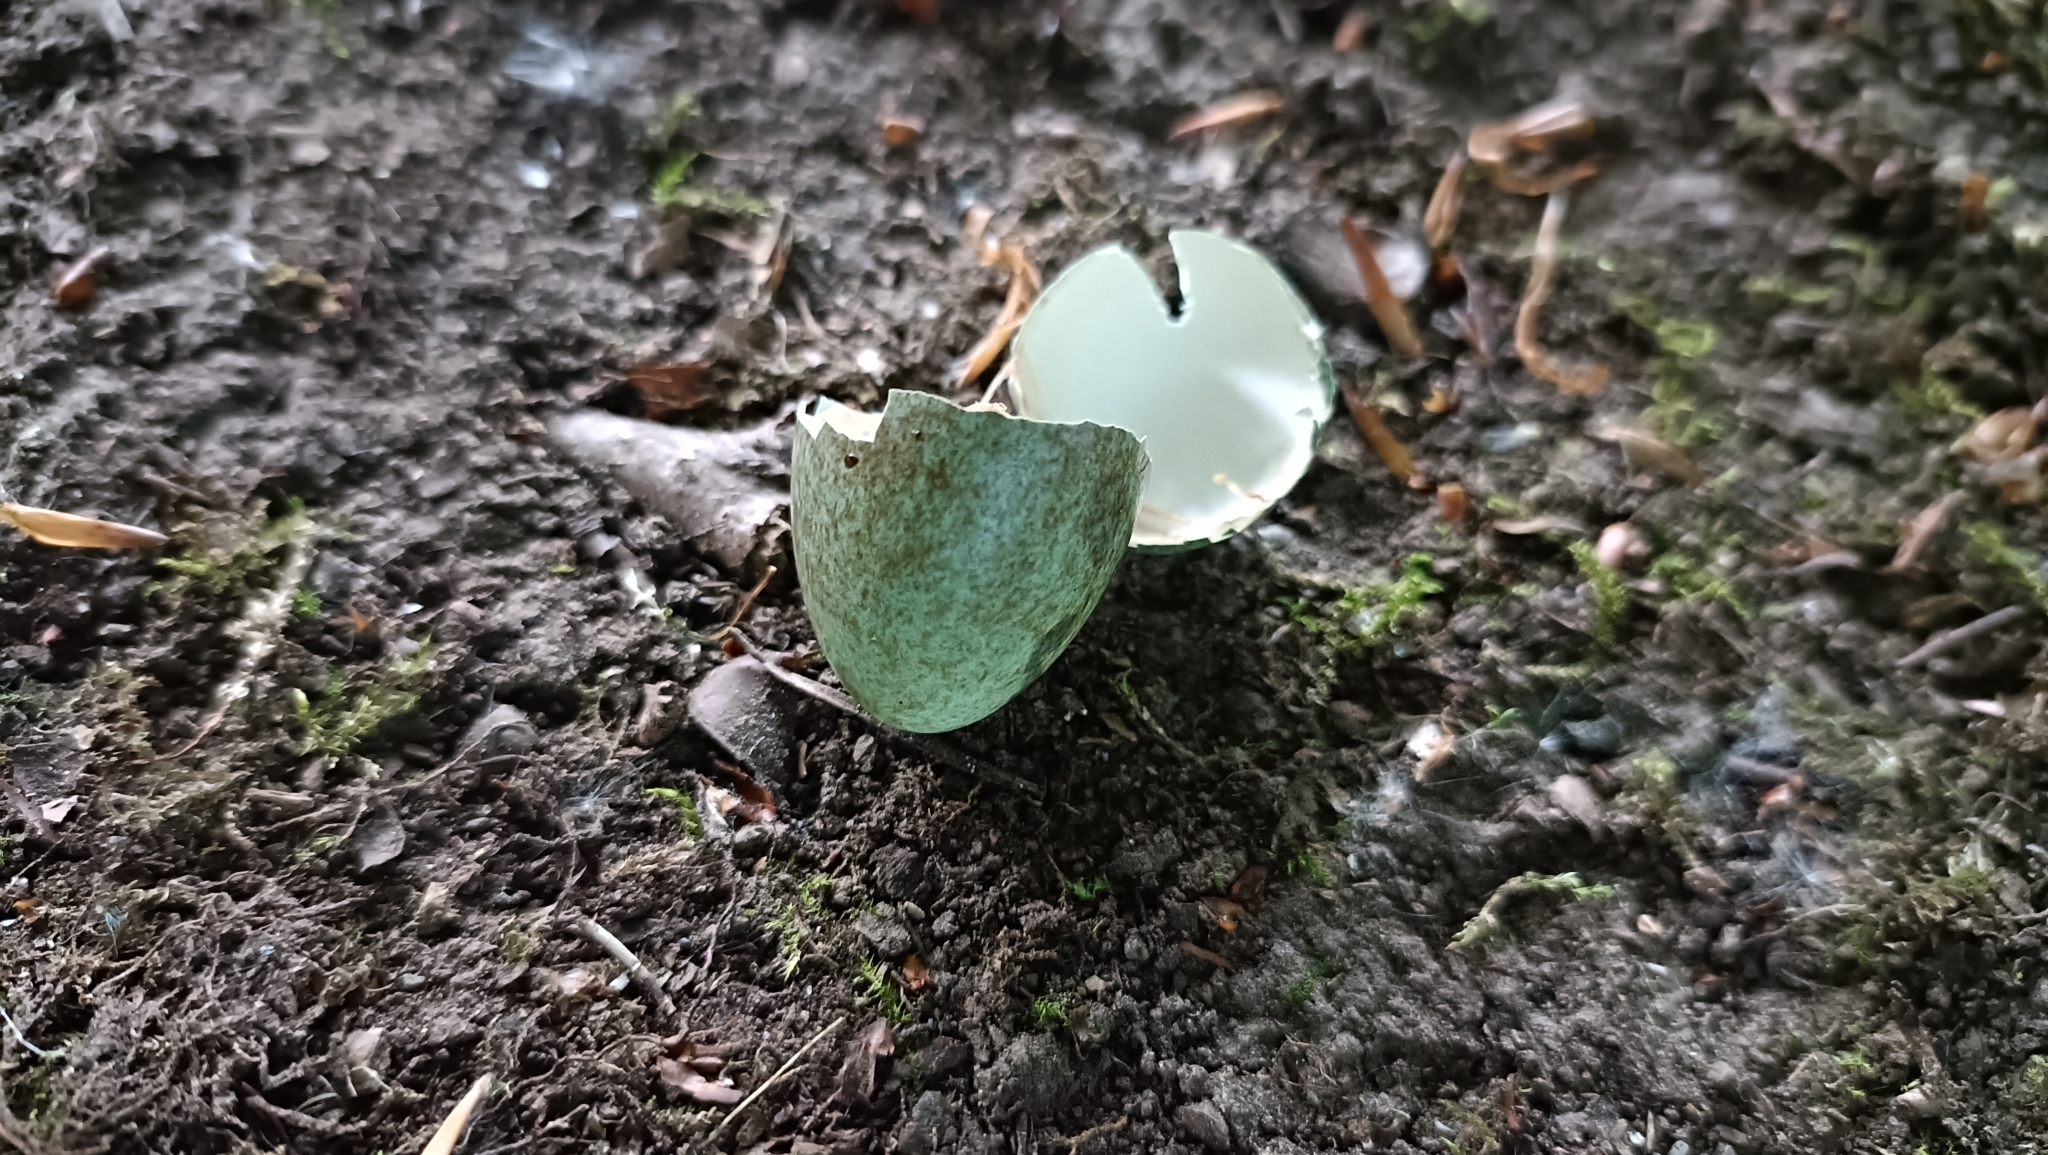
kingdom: Animalia
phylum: Chordata
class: Aves
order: Passeriformes
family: Turdidae
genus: Turdus
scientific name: Turdus merula
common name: Common blackbird
